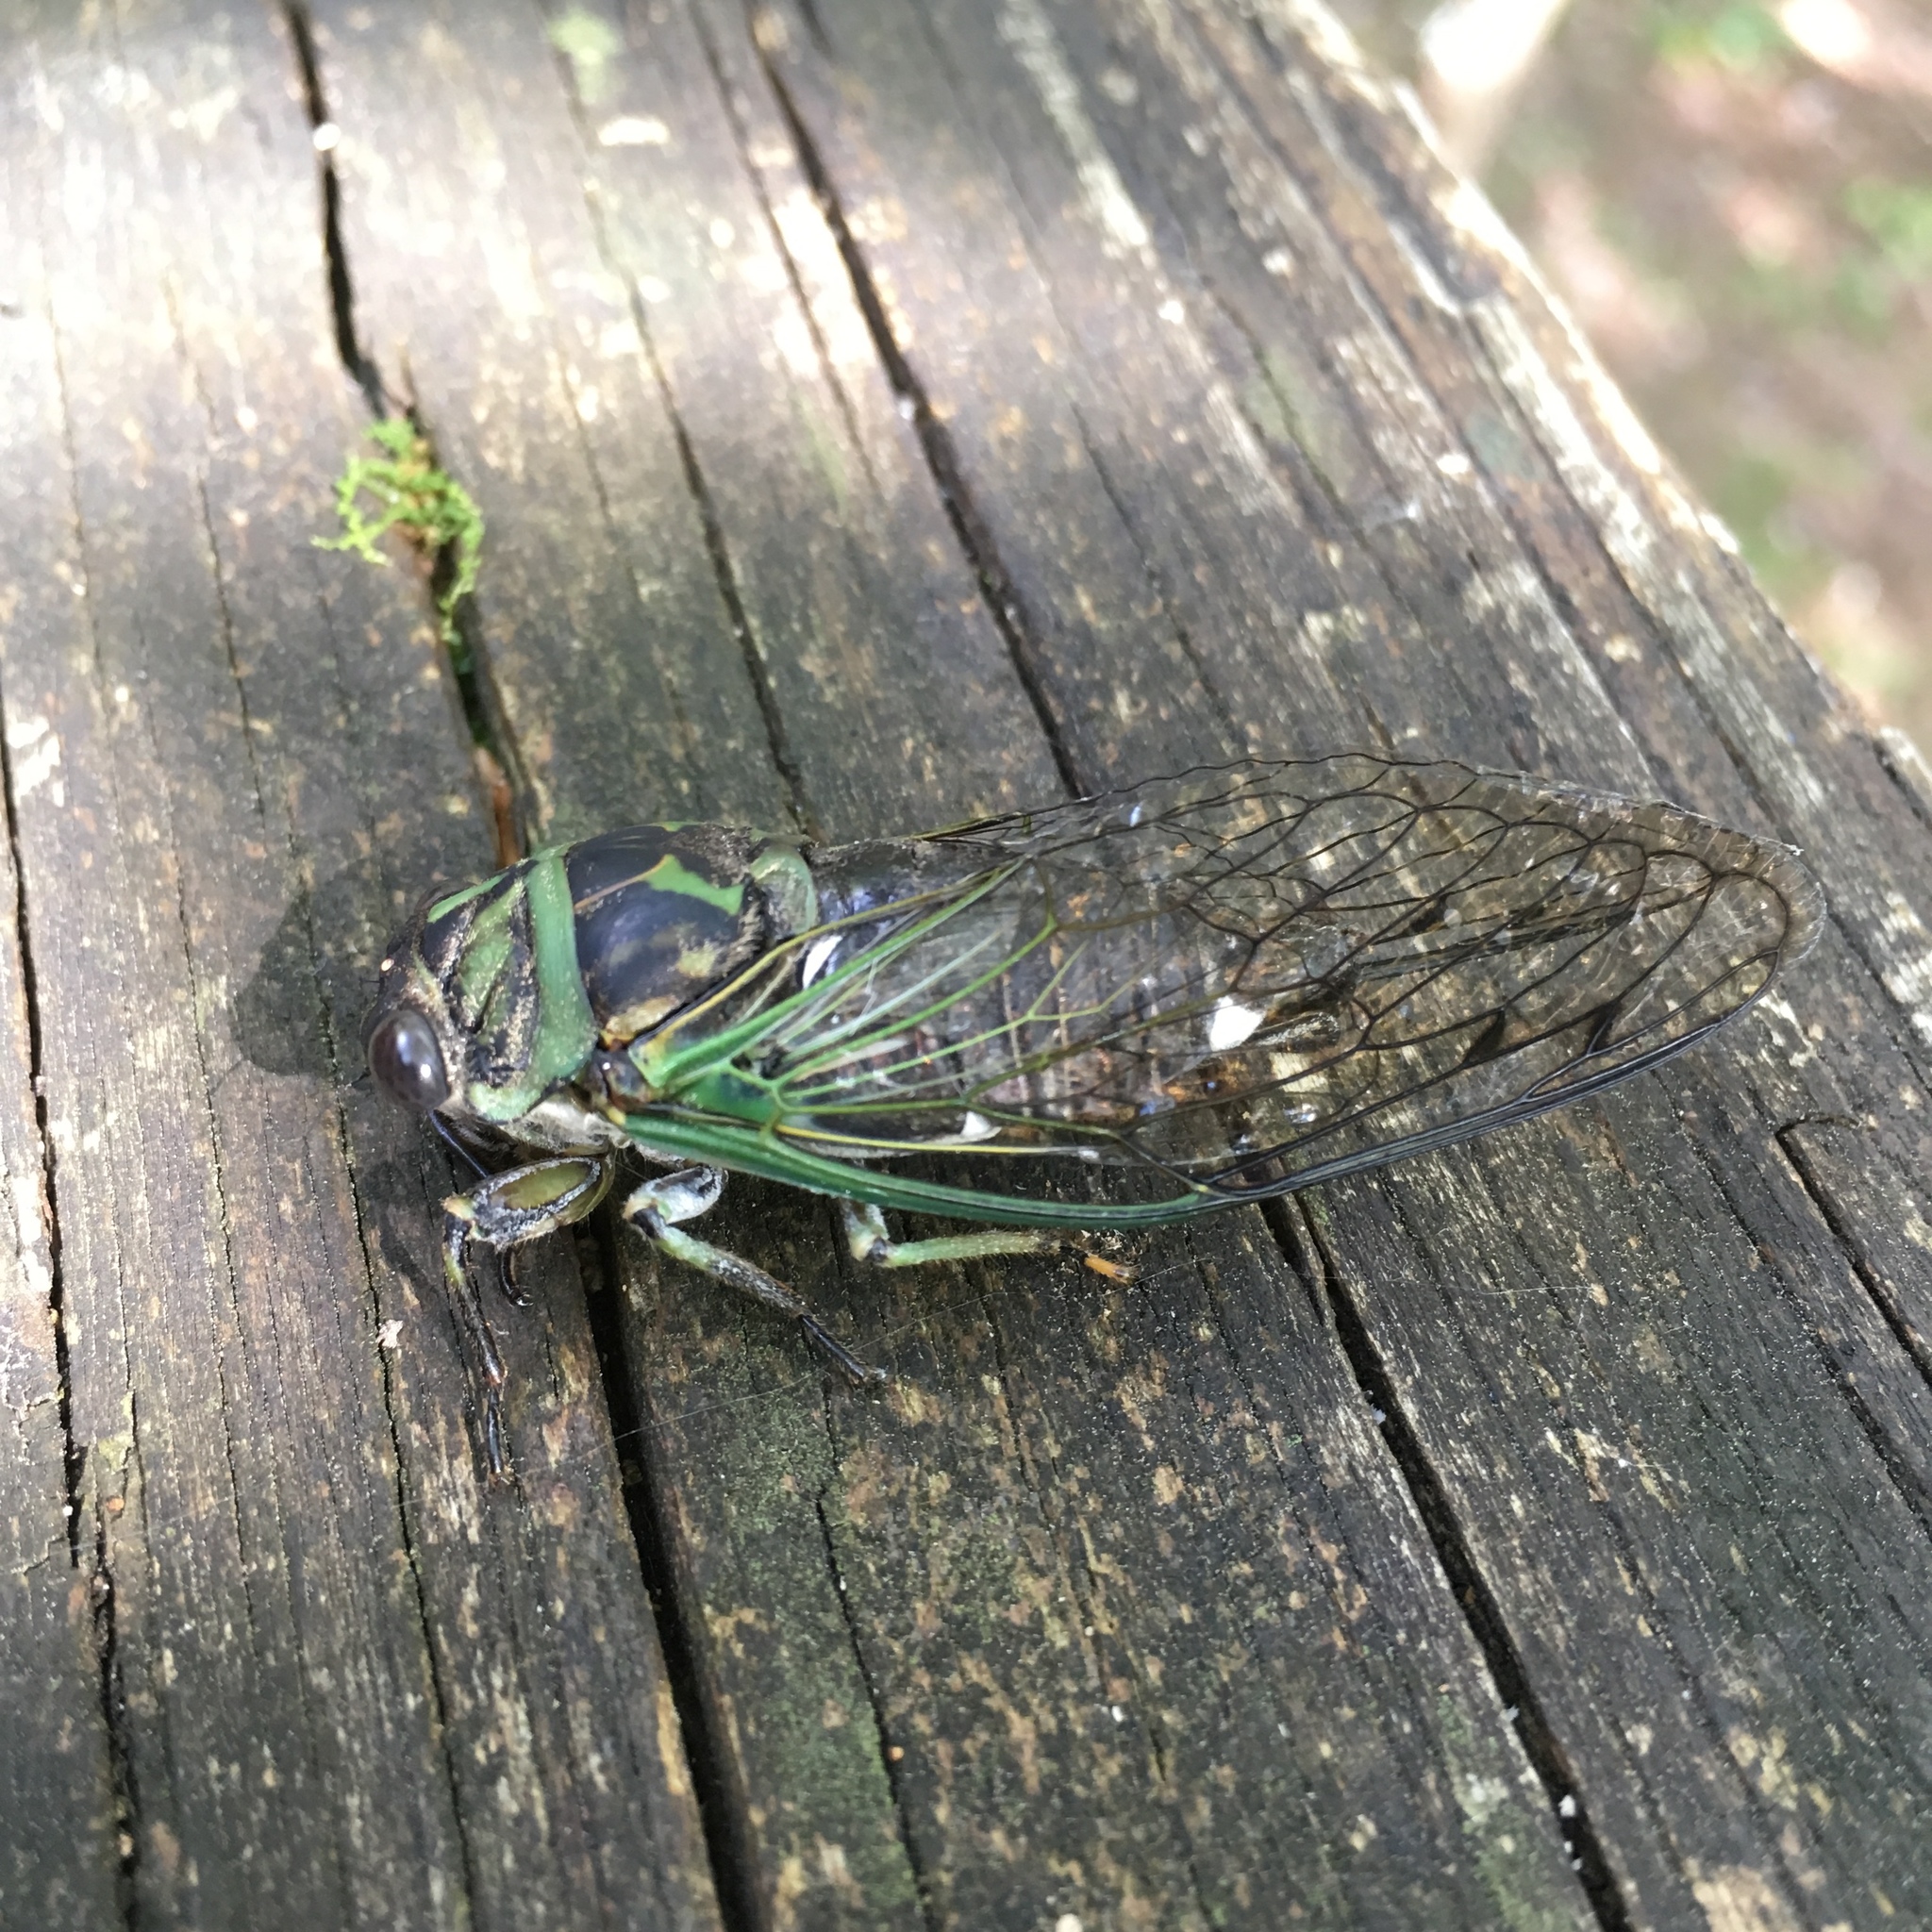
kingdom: Animalia
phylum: Arthropoda
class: Insecta
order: Hemiptera
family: Cicadidae
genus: Neotibicen
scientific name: Neotibicen linnei
